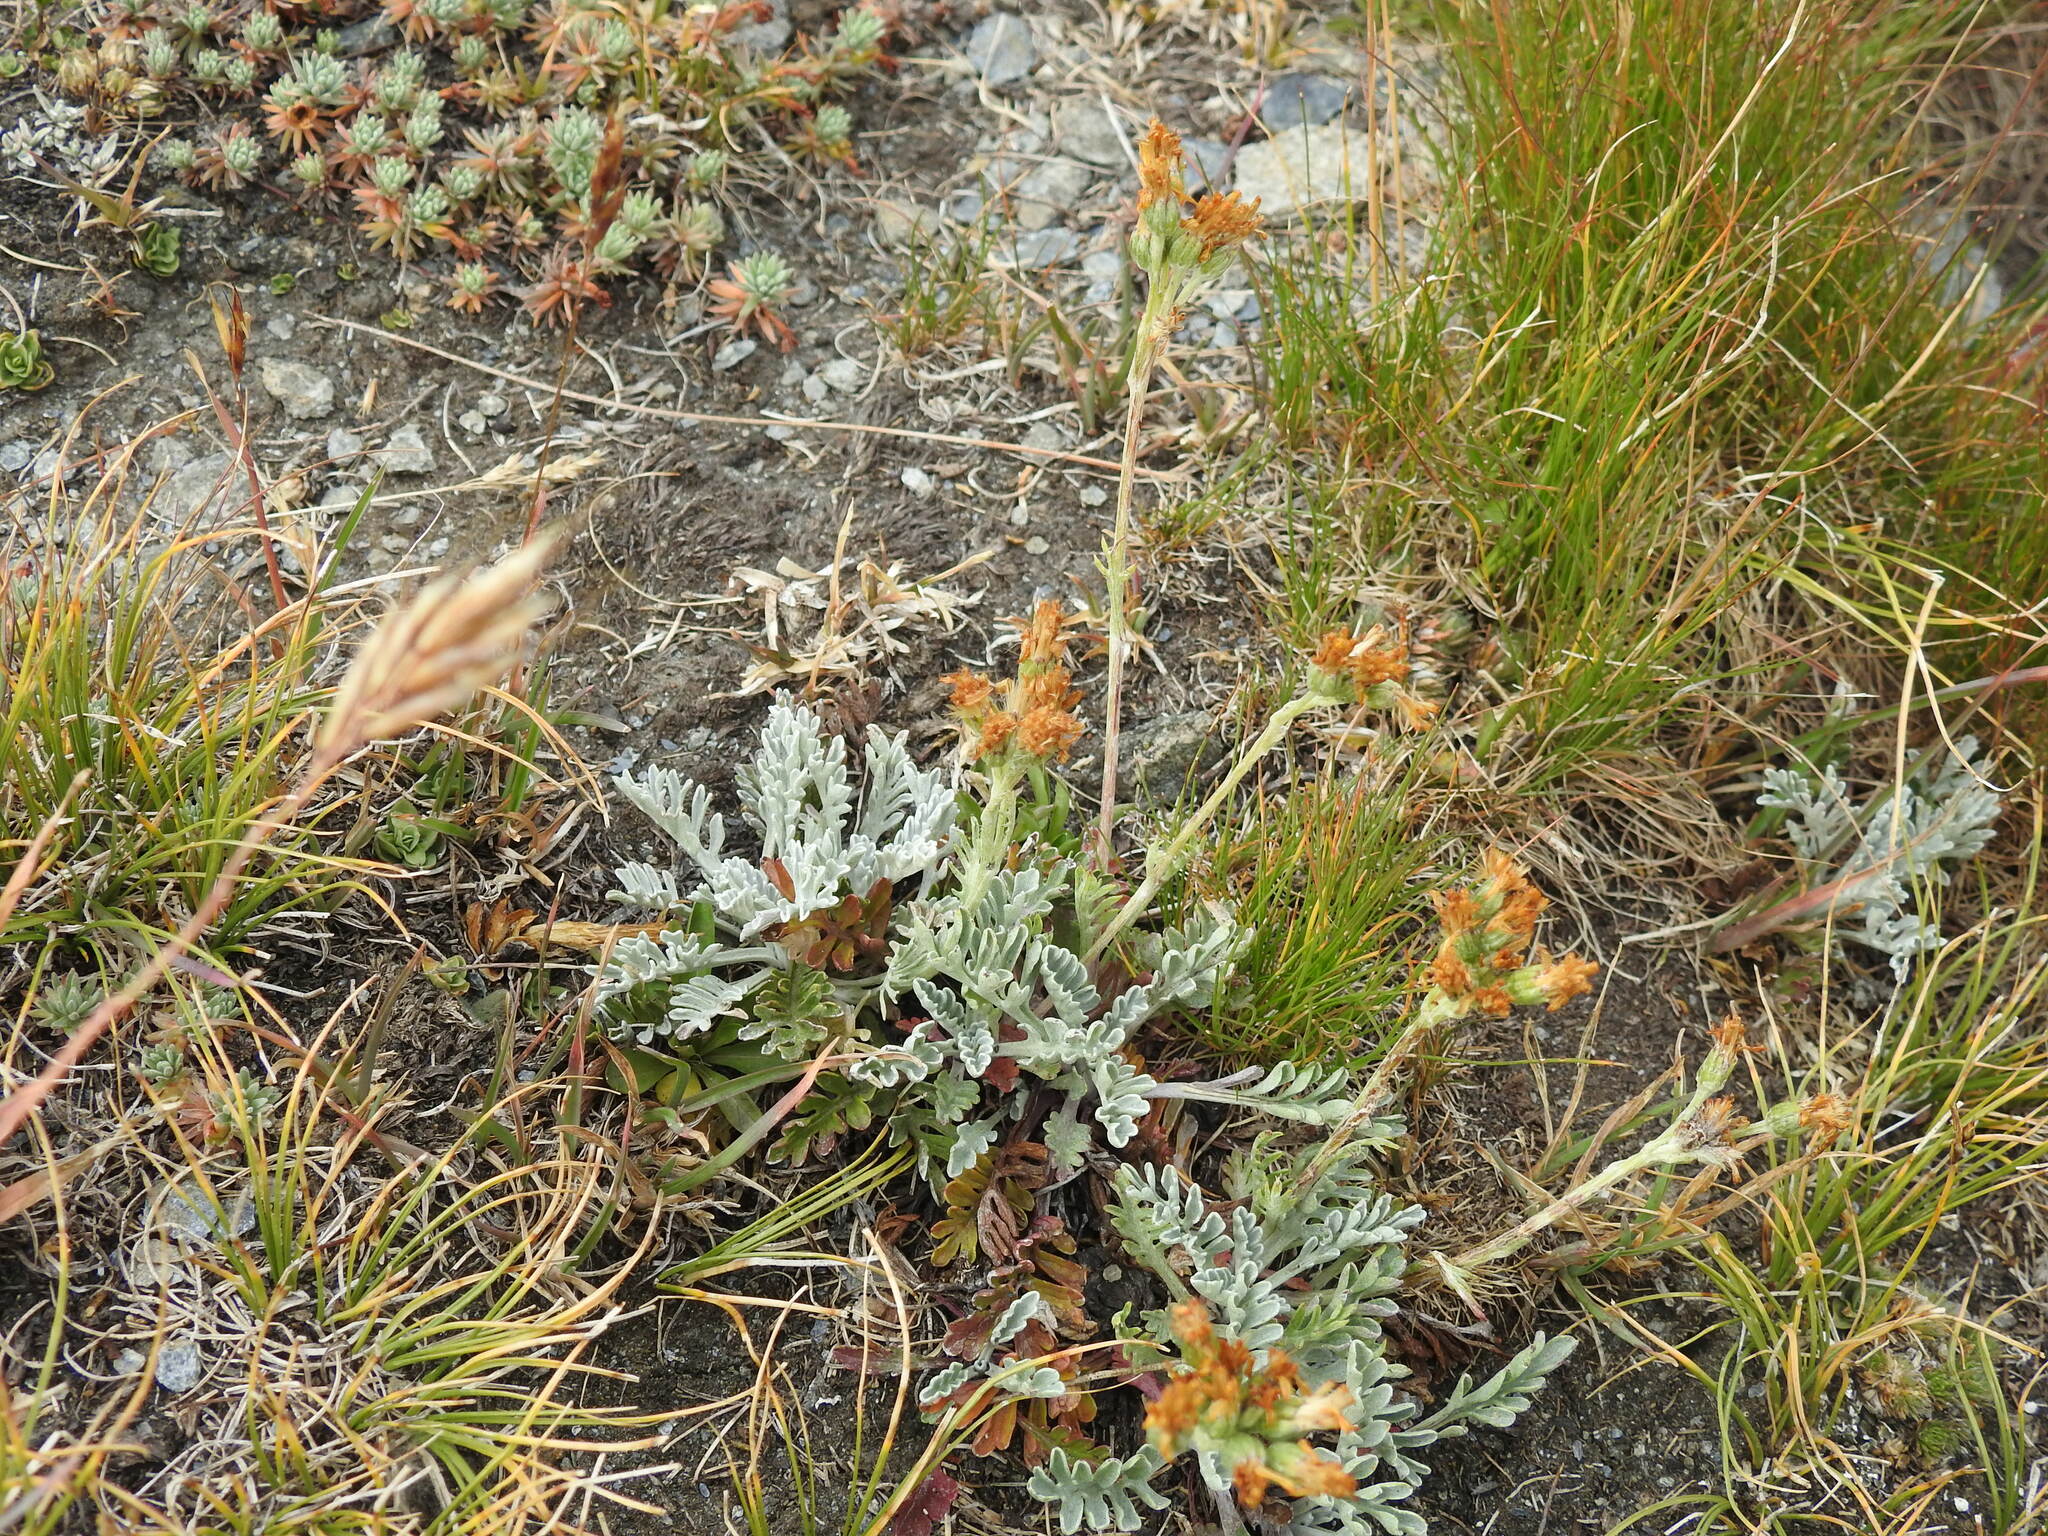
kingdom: Plantae
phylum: Tracheophyta
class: Magnoliopsida
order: Asterales
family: Asteraceae
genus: Jacobaea
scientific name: Jacobaea incana
